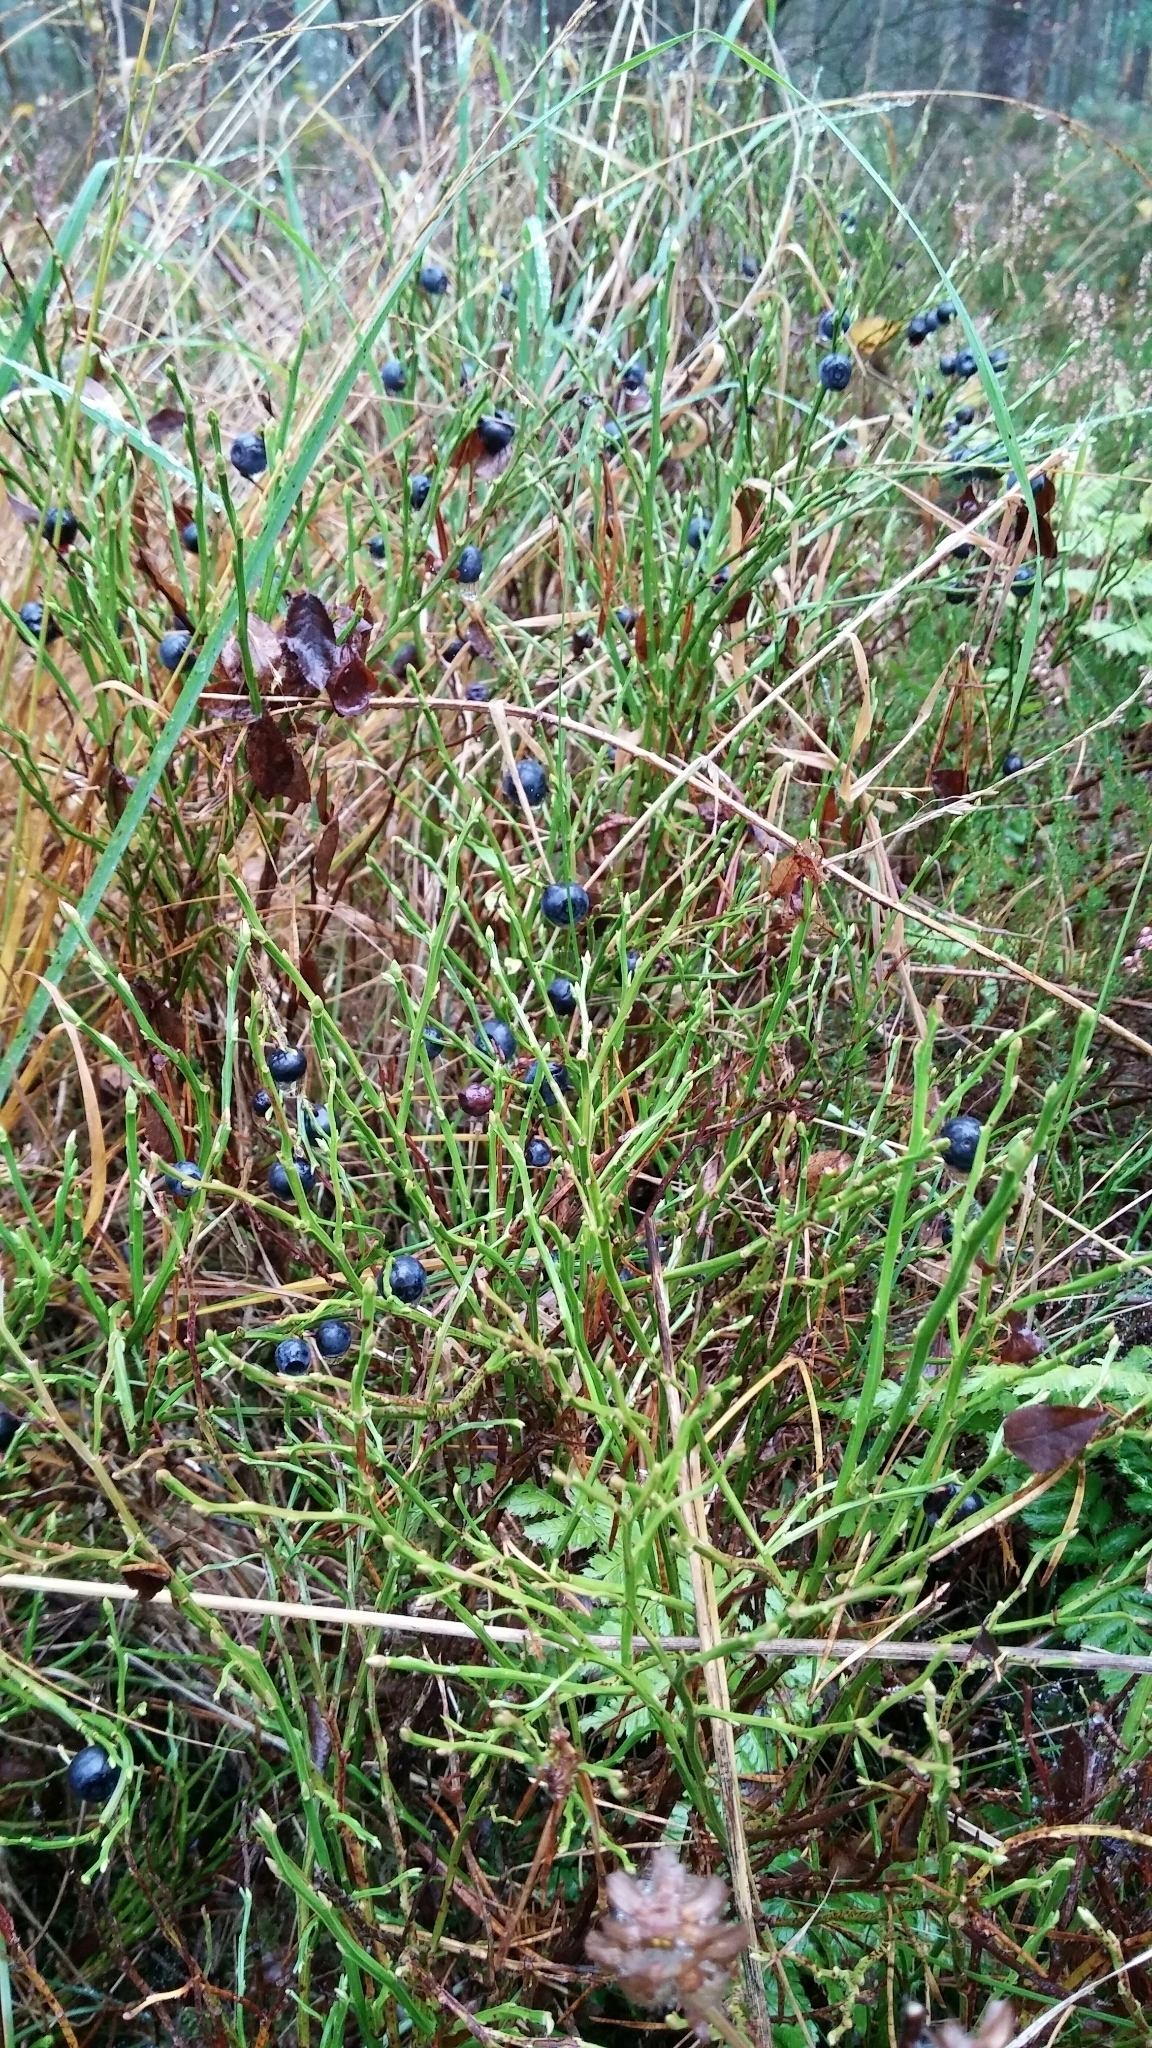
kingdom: Plantae
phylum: Tracheophyta
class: Magnoliopsida
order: Ericales
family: Ericaceae
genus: Vaccinium
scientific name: Vaccinium myrtillus
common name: Bilberry
